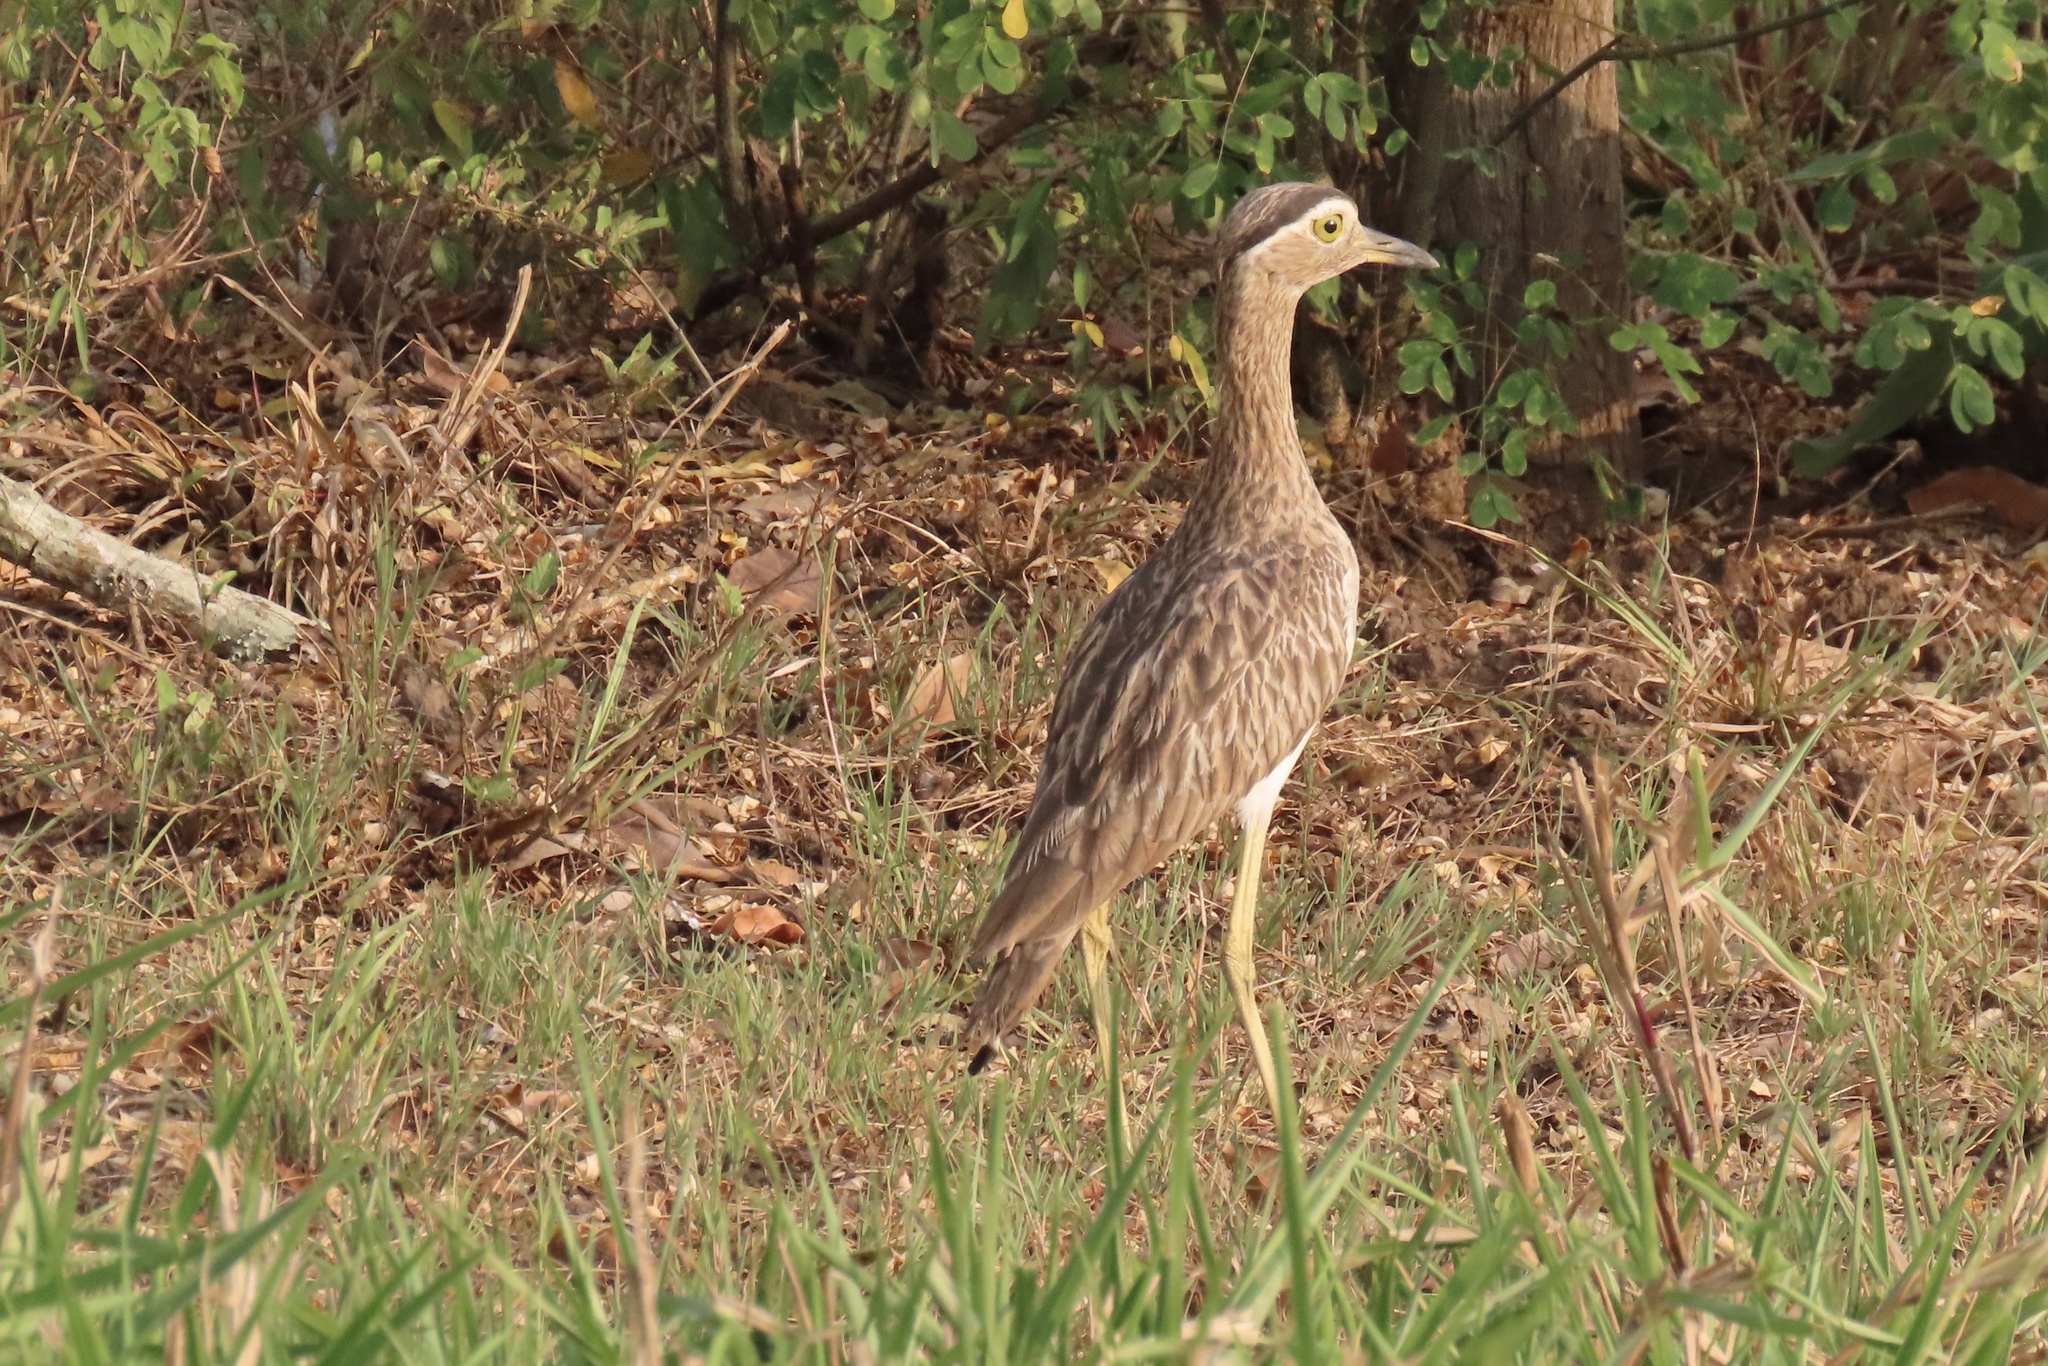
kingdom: Animalia
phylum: Chordata
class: Aves
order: Charadriiformes
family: Burhinidae
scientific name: Burhinidae
